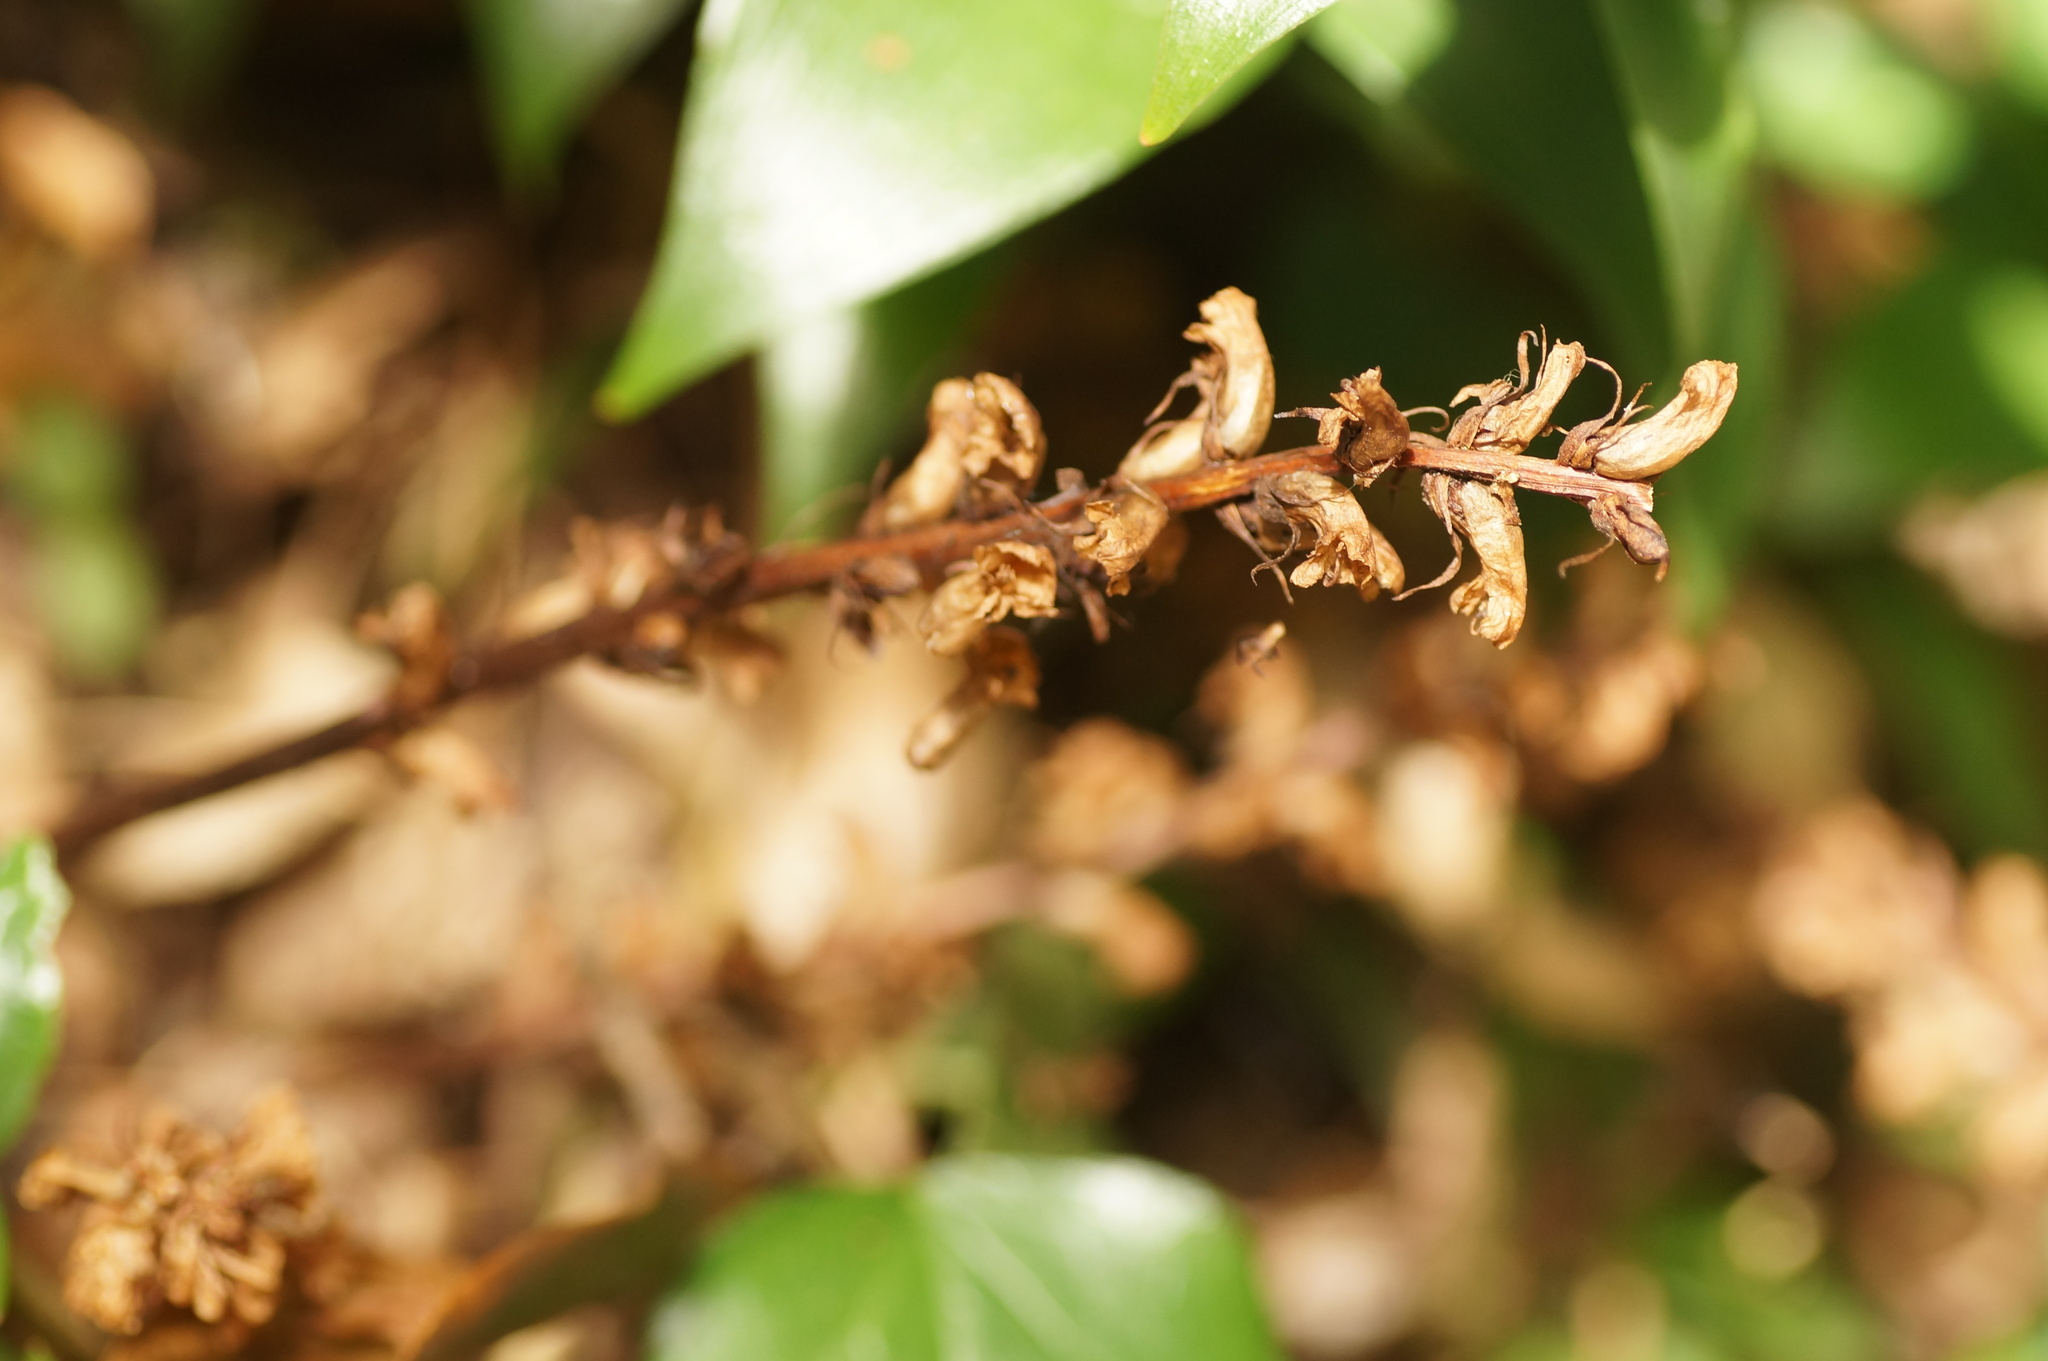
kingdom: Plantae
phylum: Tracheophyta
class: Magnoliopsida
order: Lamiales
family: Orobanchaceae
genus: Orobanche
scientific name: Orobanche hederae
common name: Ivy broomrape
